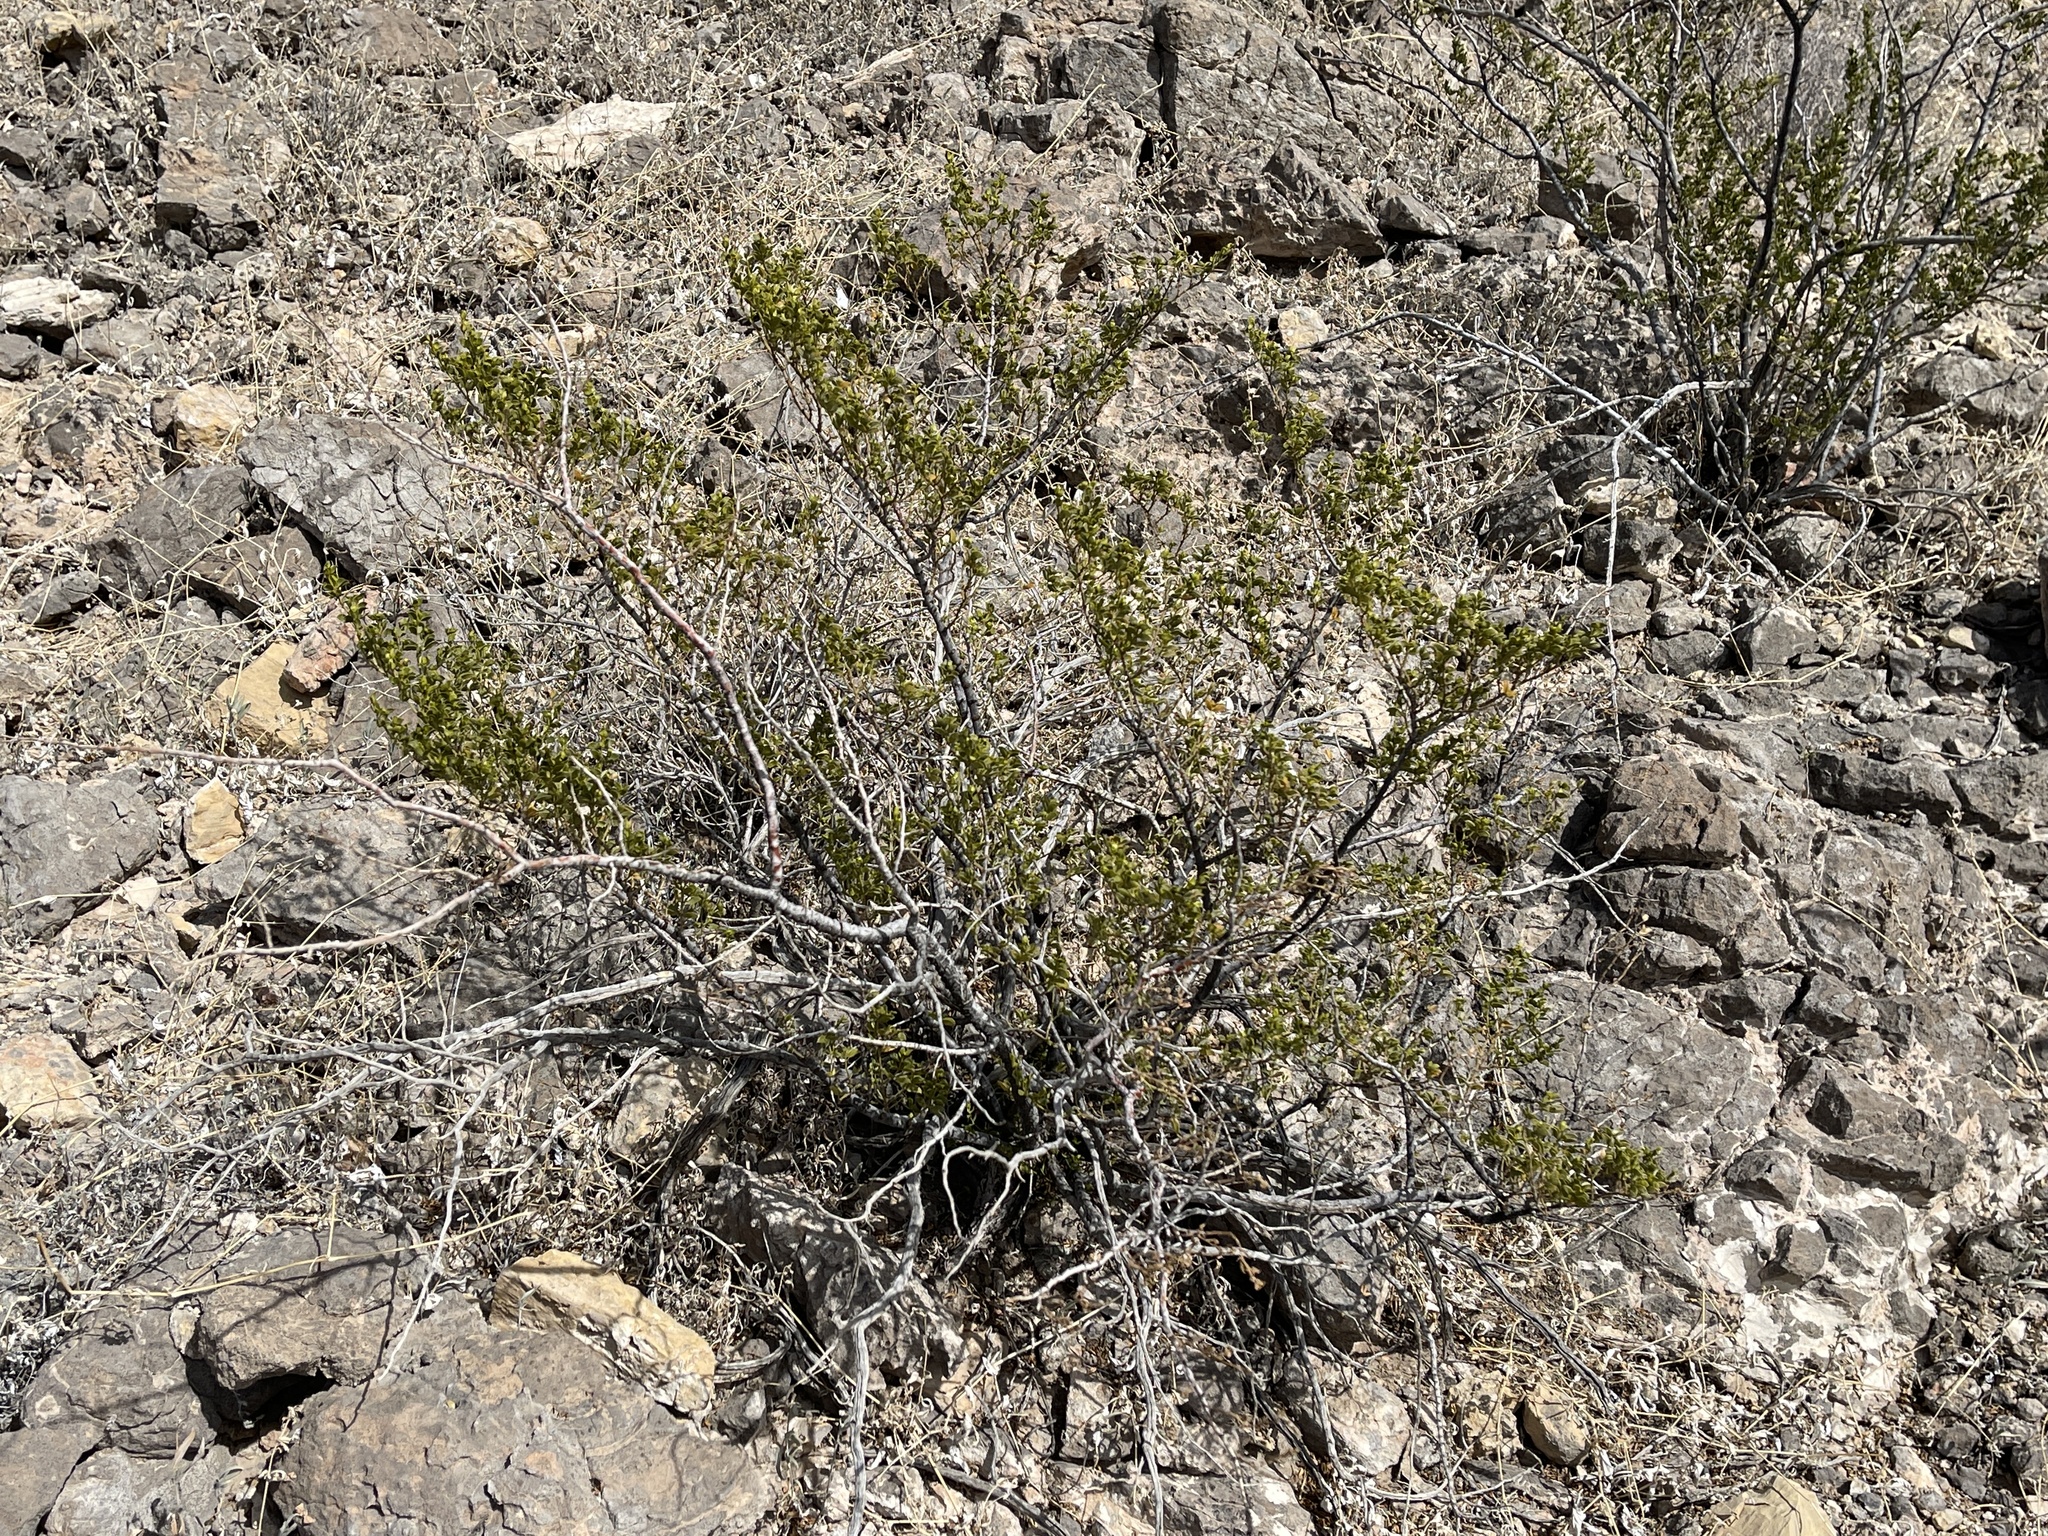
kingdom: Plantae
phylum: Tracheophyta
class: Magnoliopsida
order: Zygophyllales
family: Zygophyllaceae
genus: Larrea
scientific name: Larrea tridentata
